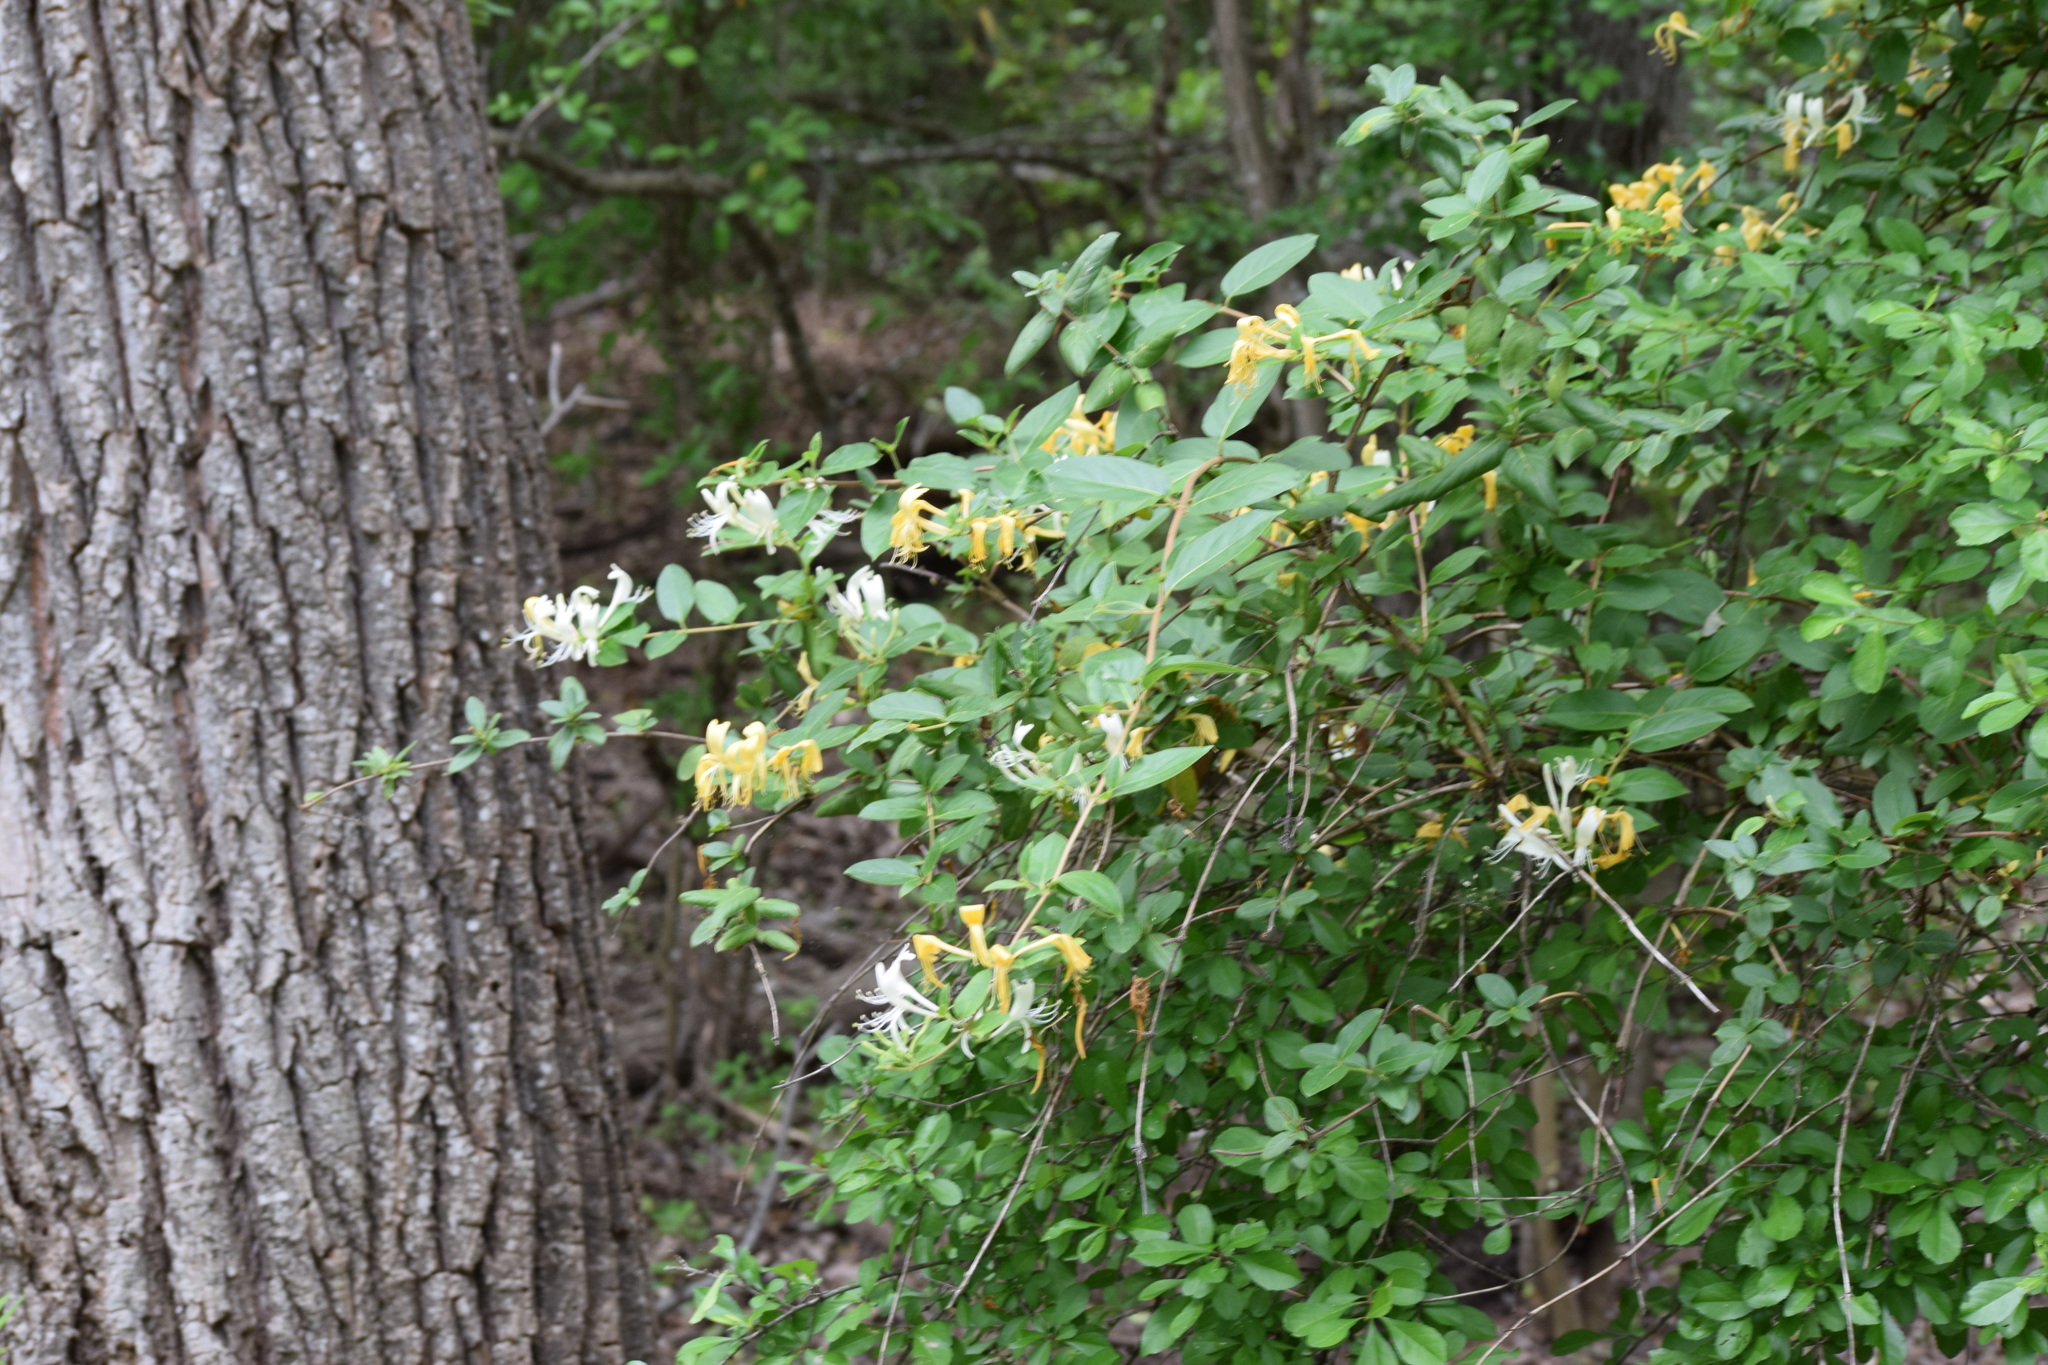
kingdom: Plantae
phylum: Tracheophyta
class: Magnoliopsida
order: Dipsacales
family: Caprifoliaceae
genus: Lonicera
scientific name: Lonicera japonica
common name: Japanese honeysuckle
